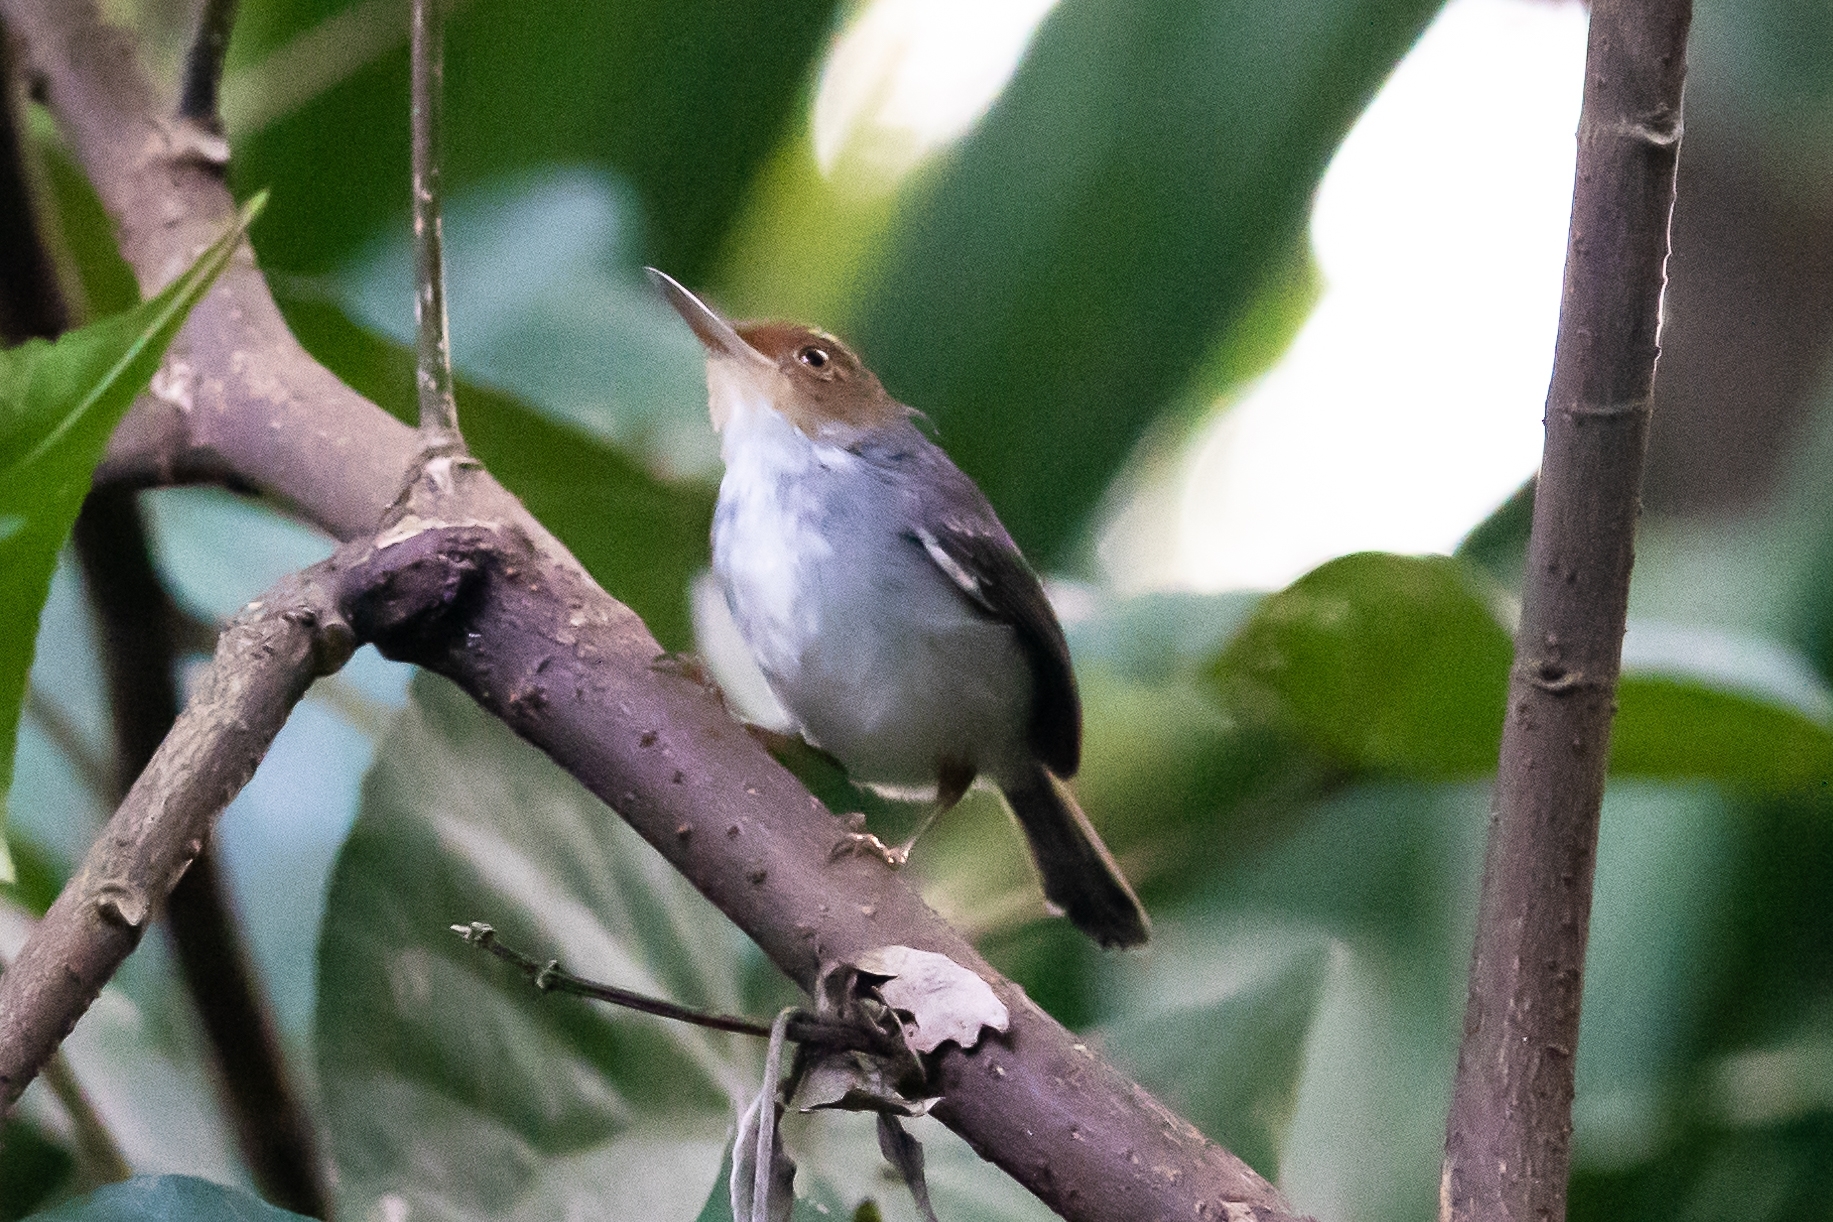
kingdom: Animalia
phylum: Chordata
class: Aves
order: Passeriformes
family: Cisticolidae
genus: Orthotomus
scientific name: Orthotomus ruficeps
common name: Ashy tailorbird
